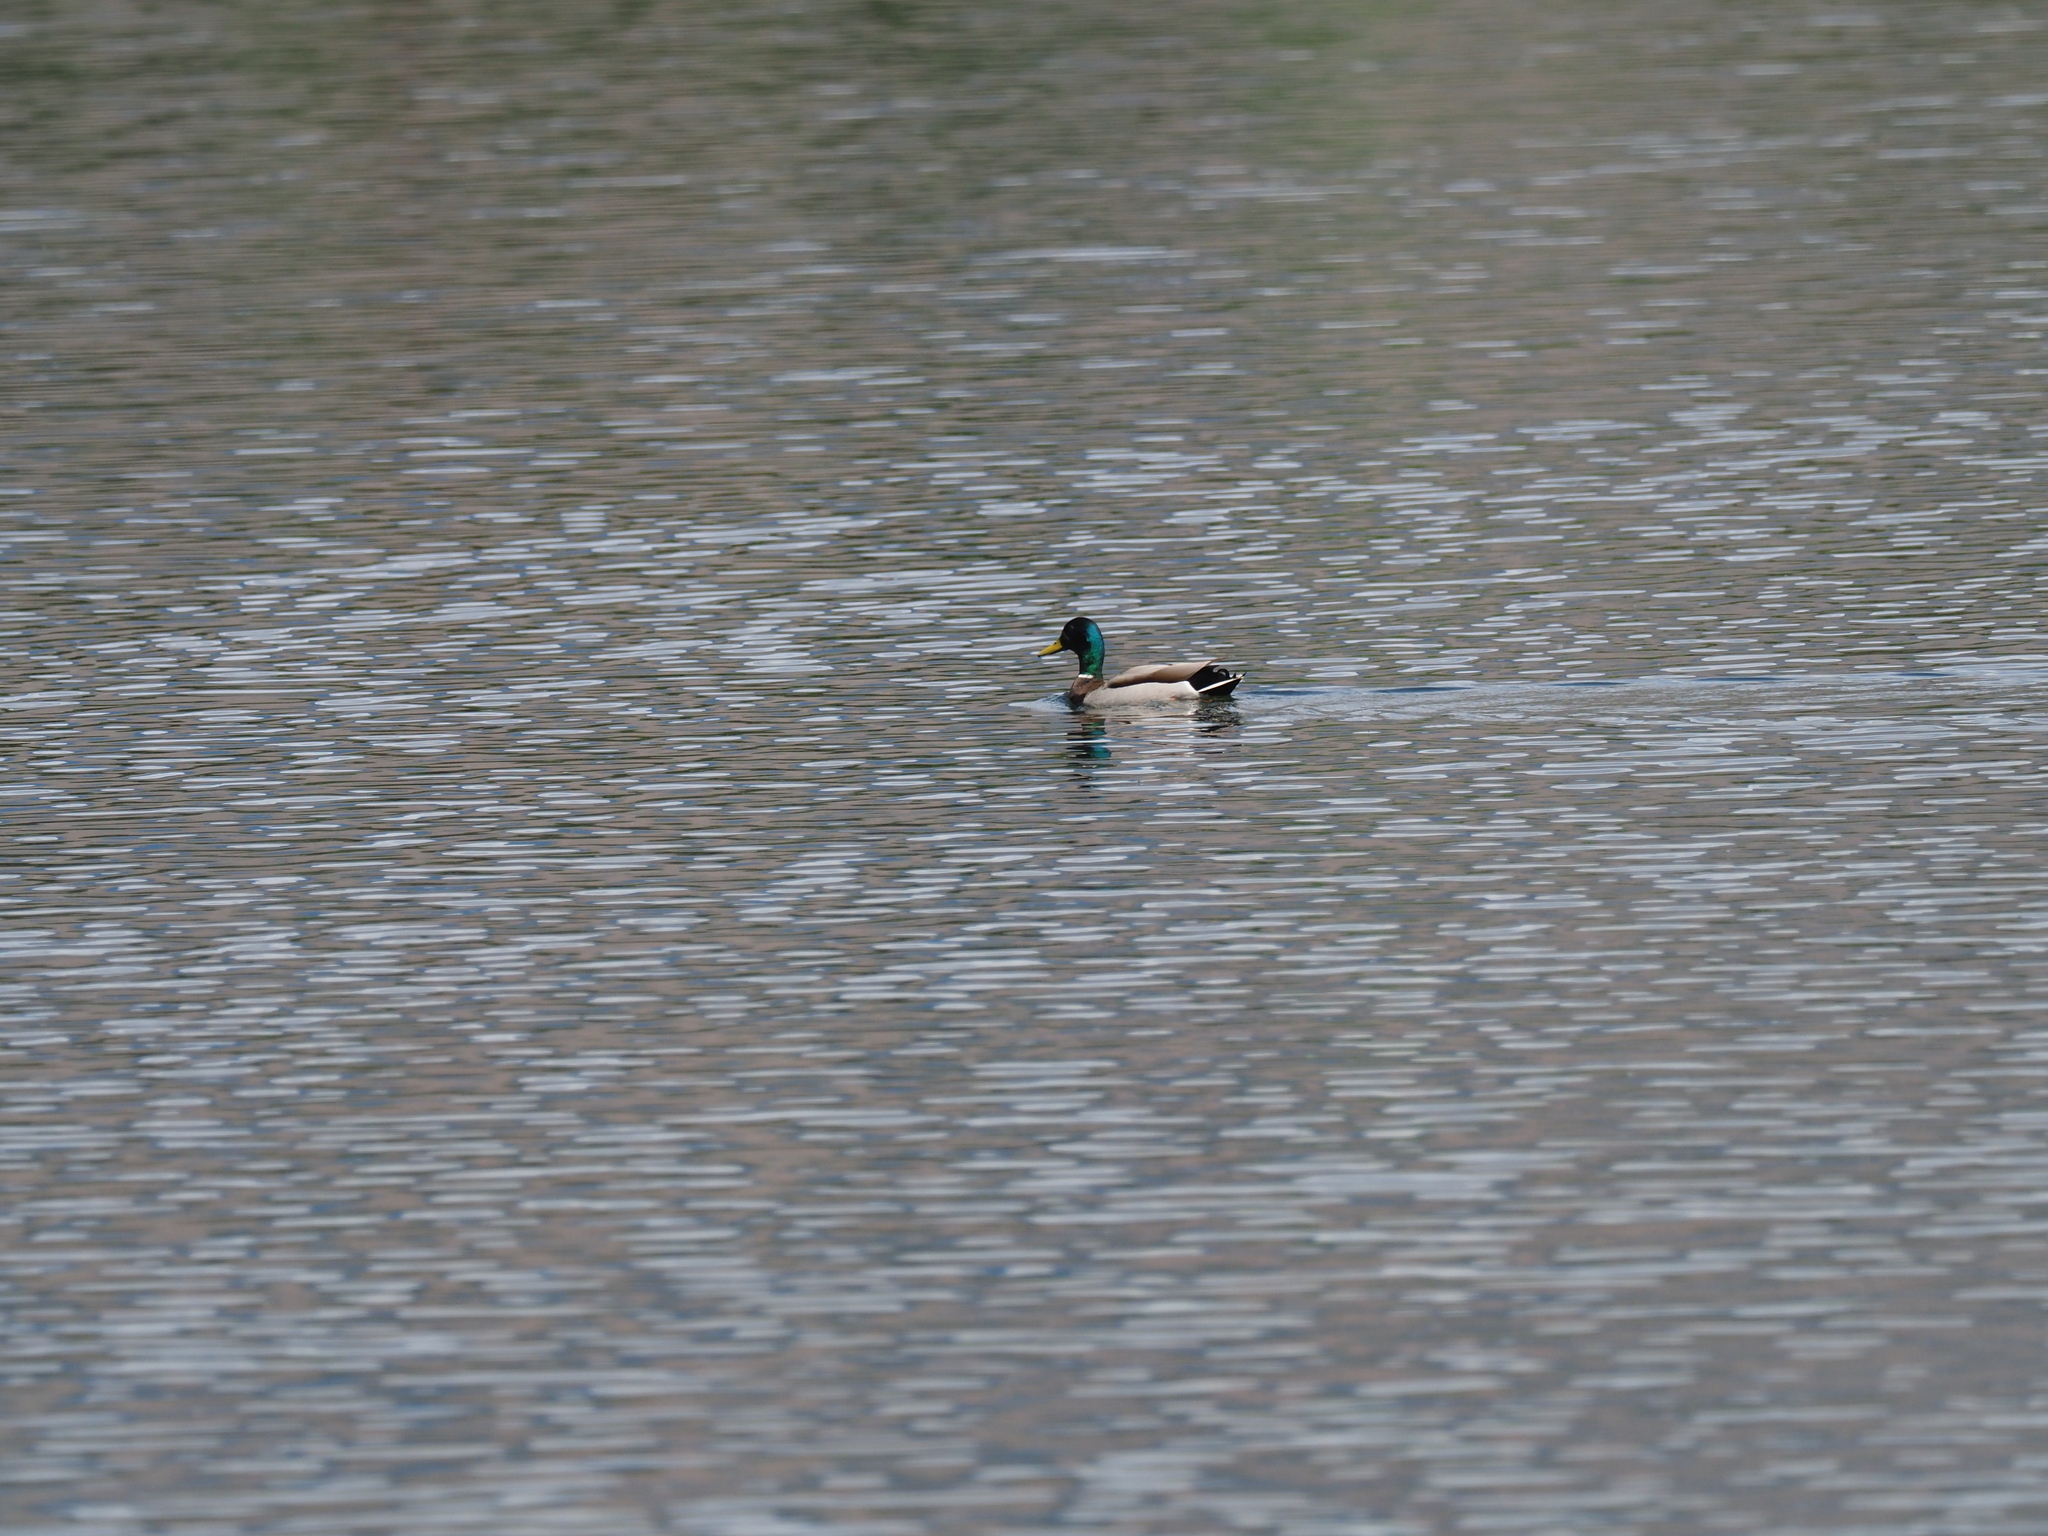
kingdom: Animalia
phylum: Chordata
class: Aves
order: Anseriformes
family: Anatidae
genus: Anas
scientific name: Anas platyrhynchos
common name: Mallard
